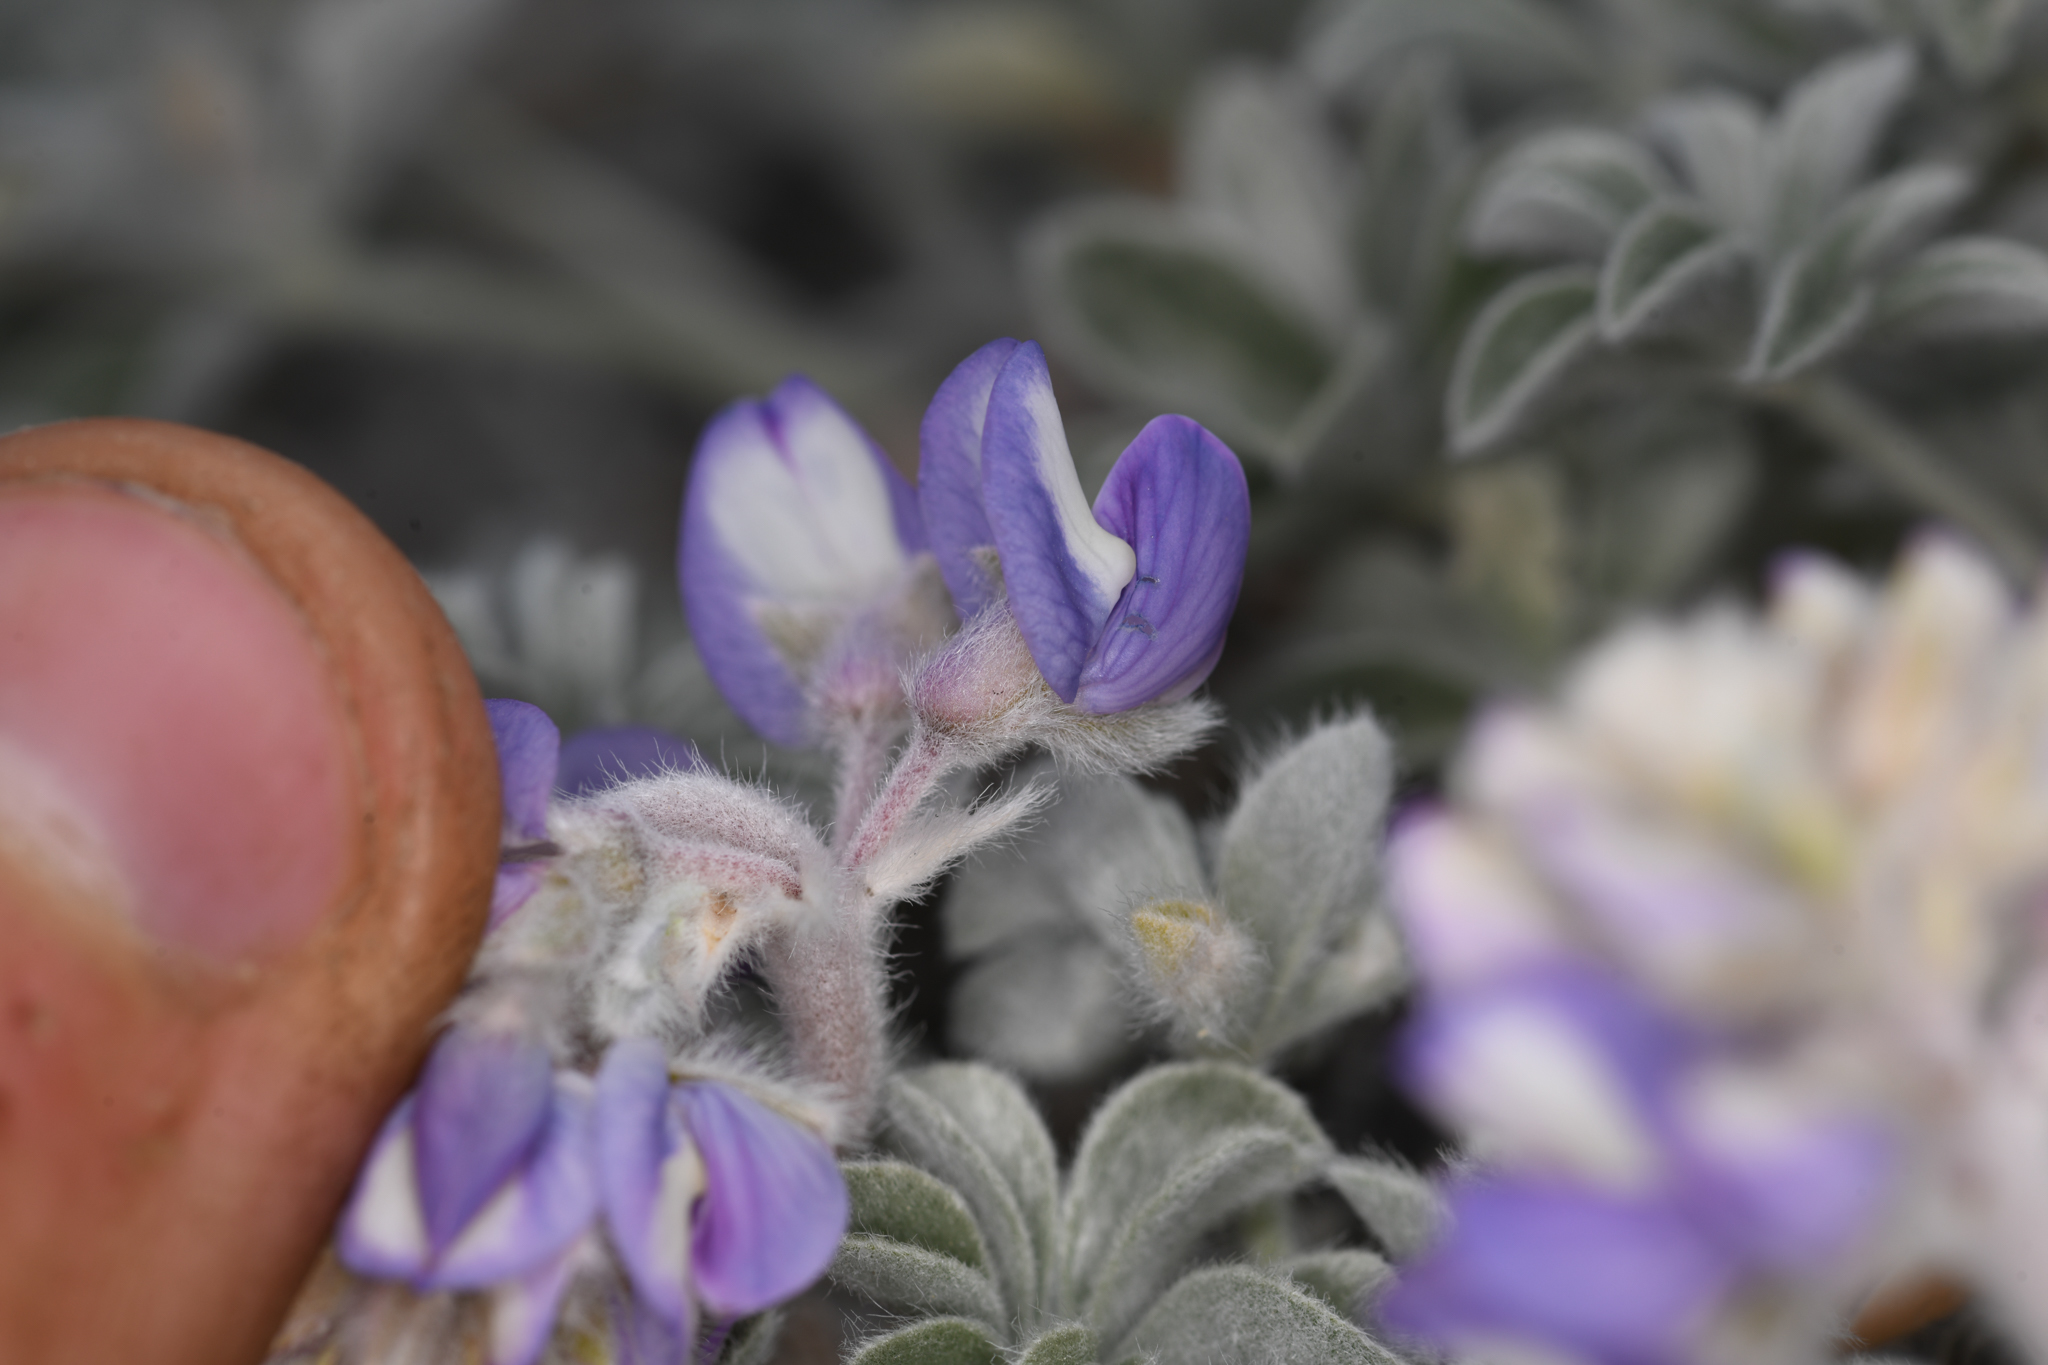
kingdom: Plantae
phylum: Tracheophyta
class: Magnoliopsida
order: Fabales
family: Fabaceae
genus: Lupinus
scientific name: Lupinus duranii
